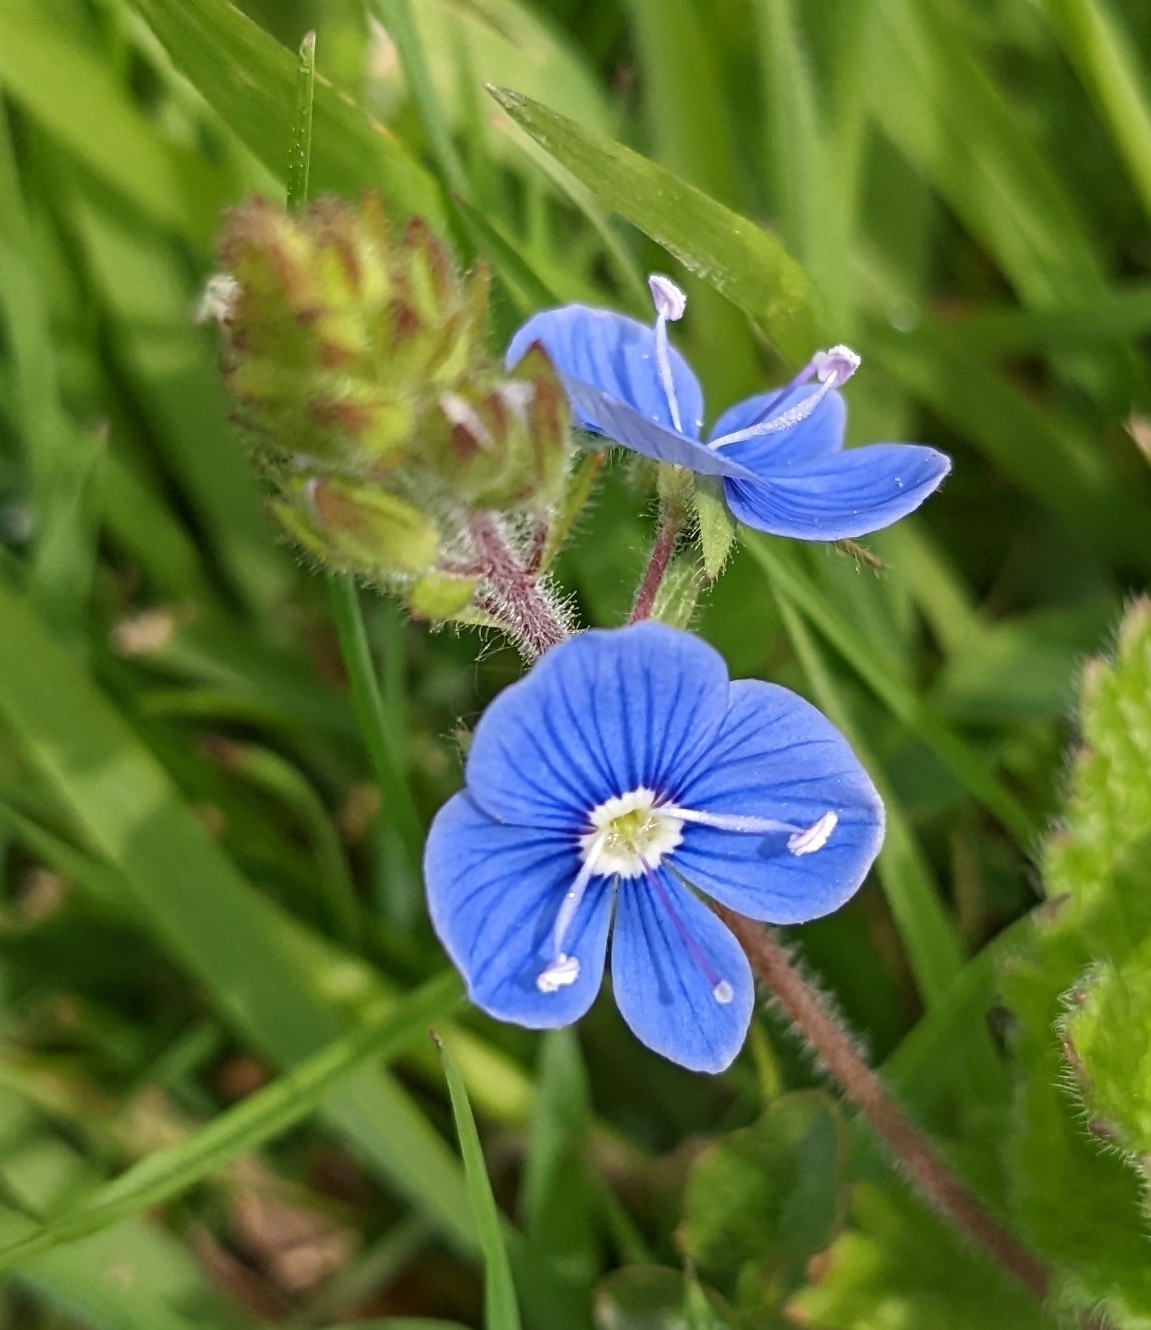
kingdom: Plantae
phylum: Tracheophyta
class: Magnoliopsida
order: Lamiales
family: Plantaginaceae
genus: Veronica
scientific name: Veronica chamaedrys
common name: Germander speedwell
